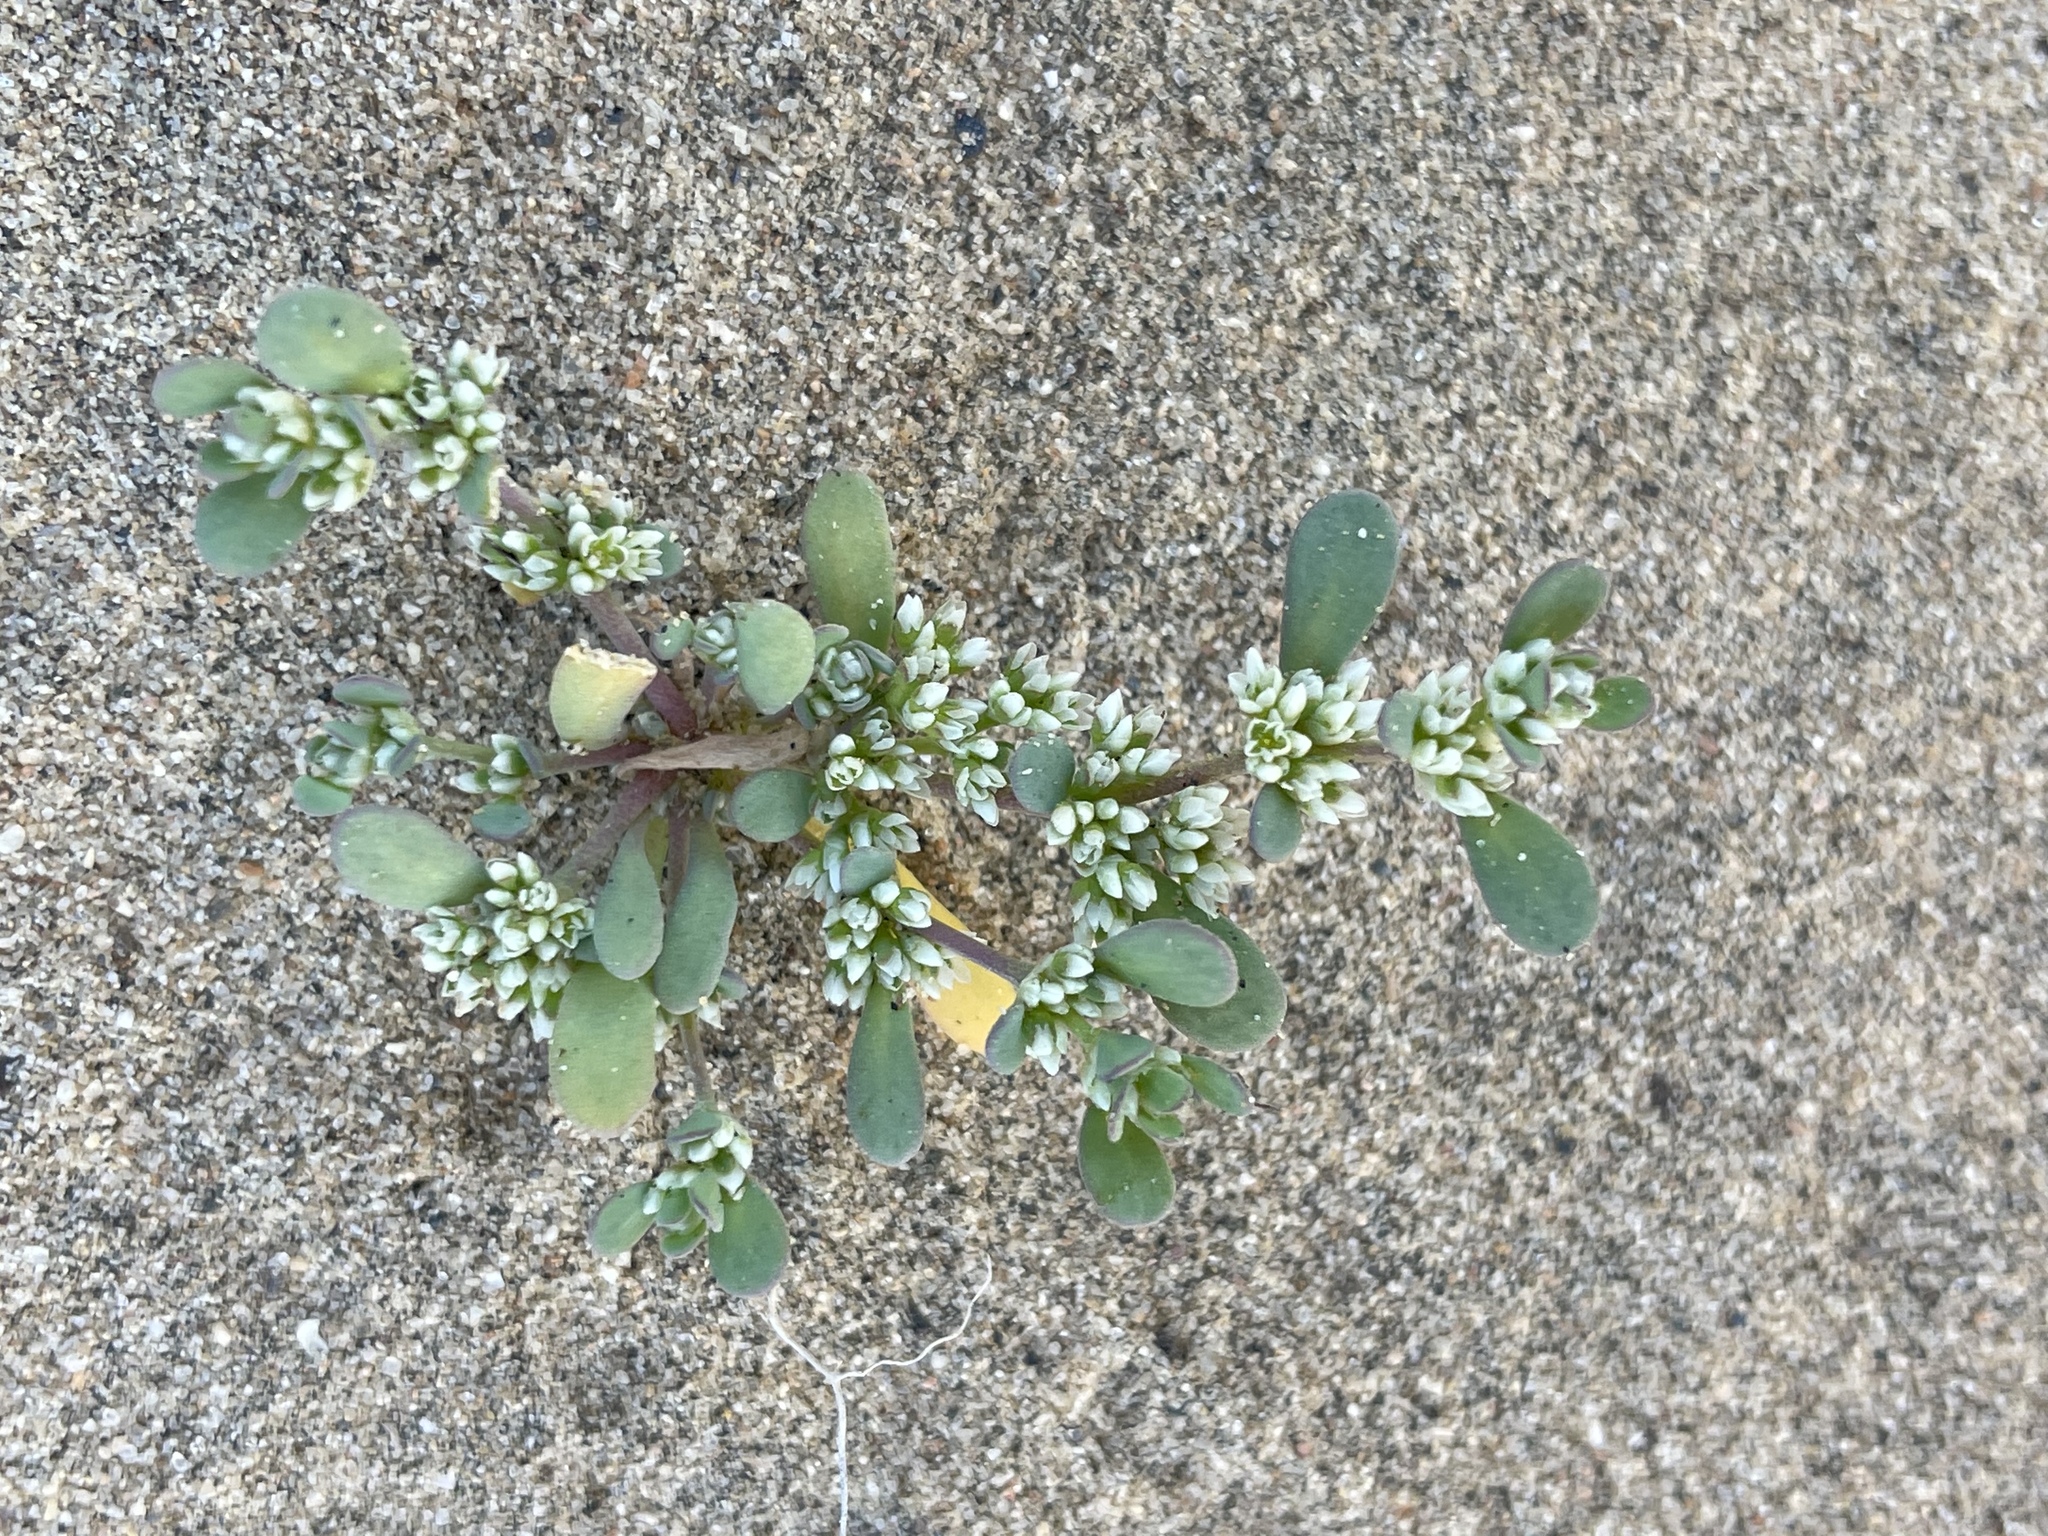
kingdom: Plantae
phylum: Tracheophyta
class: Magnoliopsida
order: Caryophyllales
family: Caryophyllaceae
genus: Achyronychia
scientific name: Achyronychia cooperi
